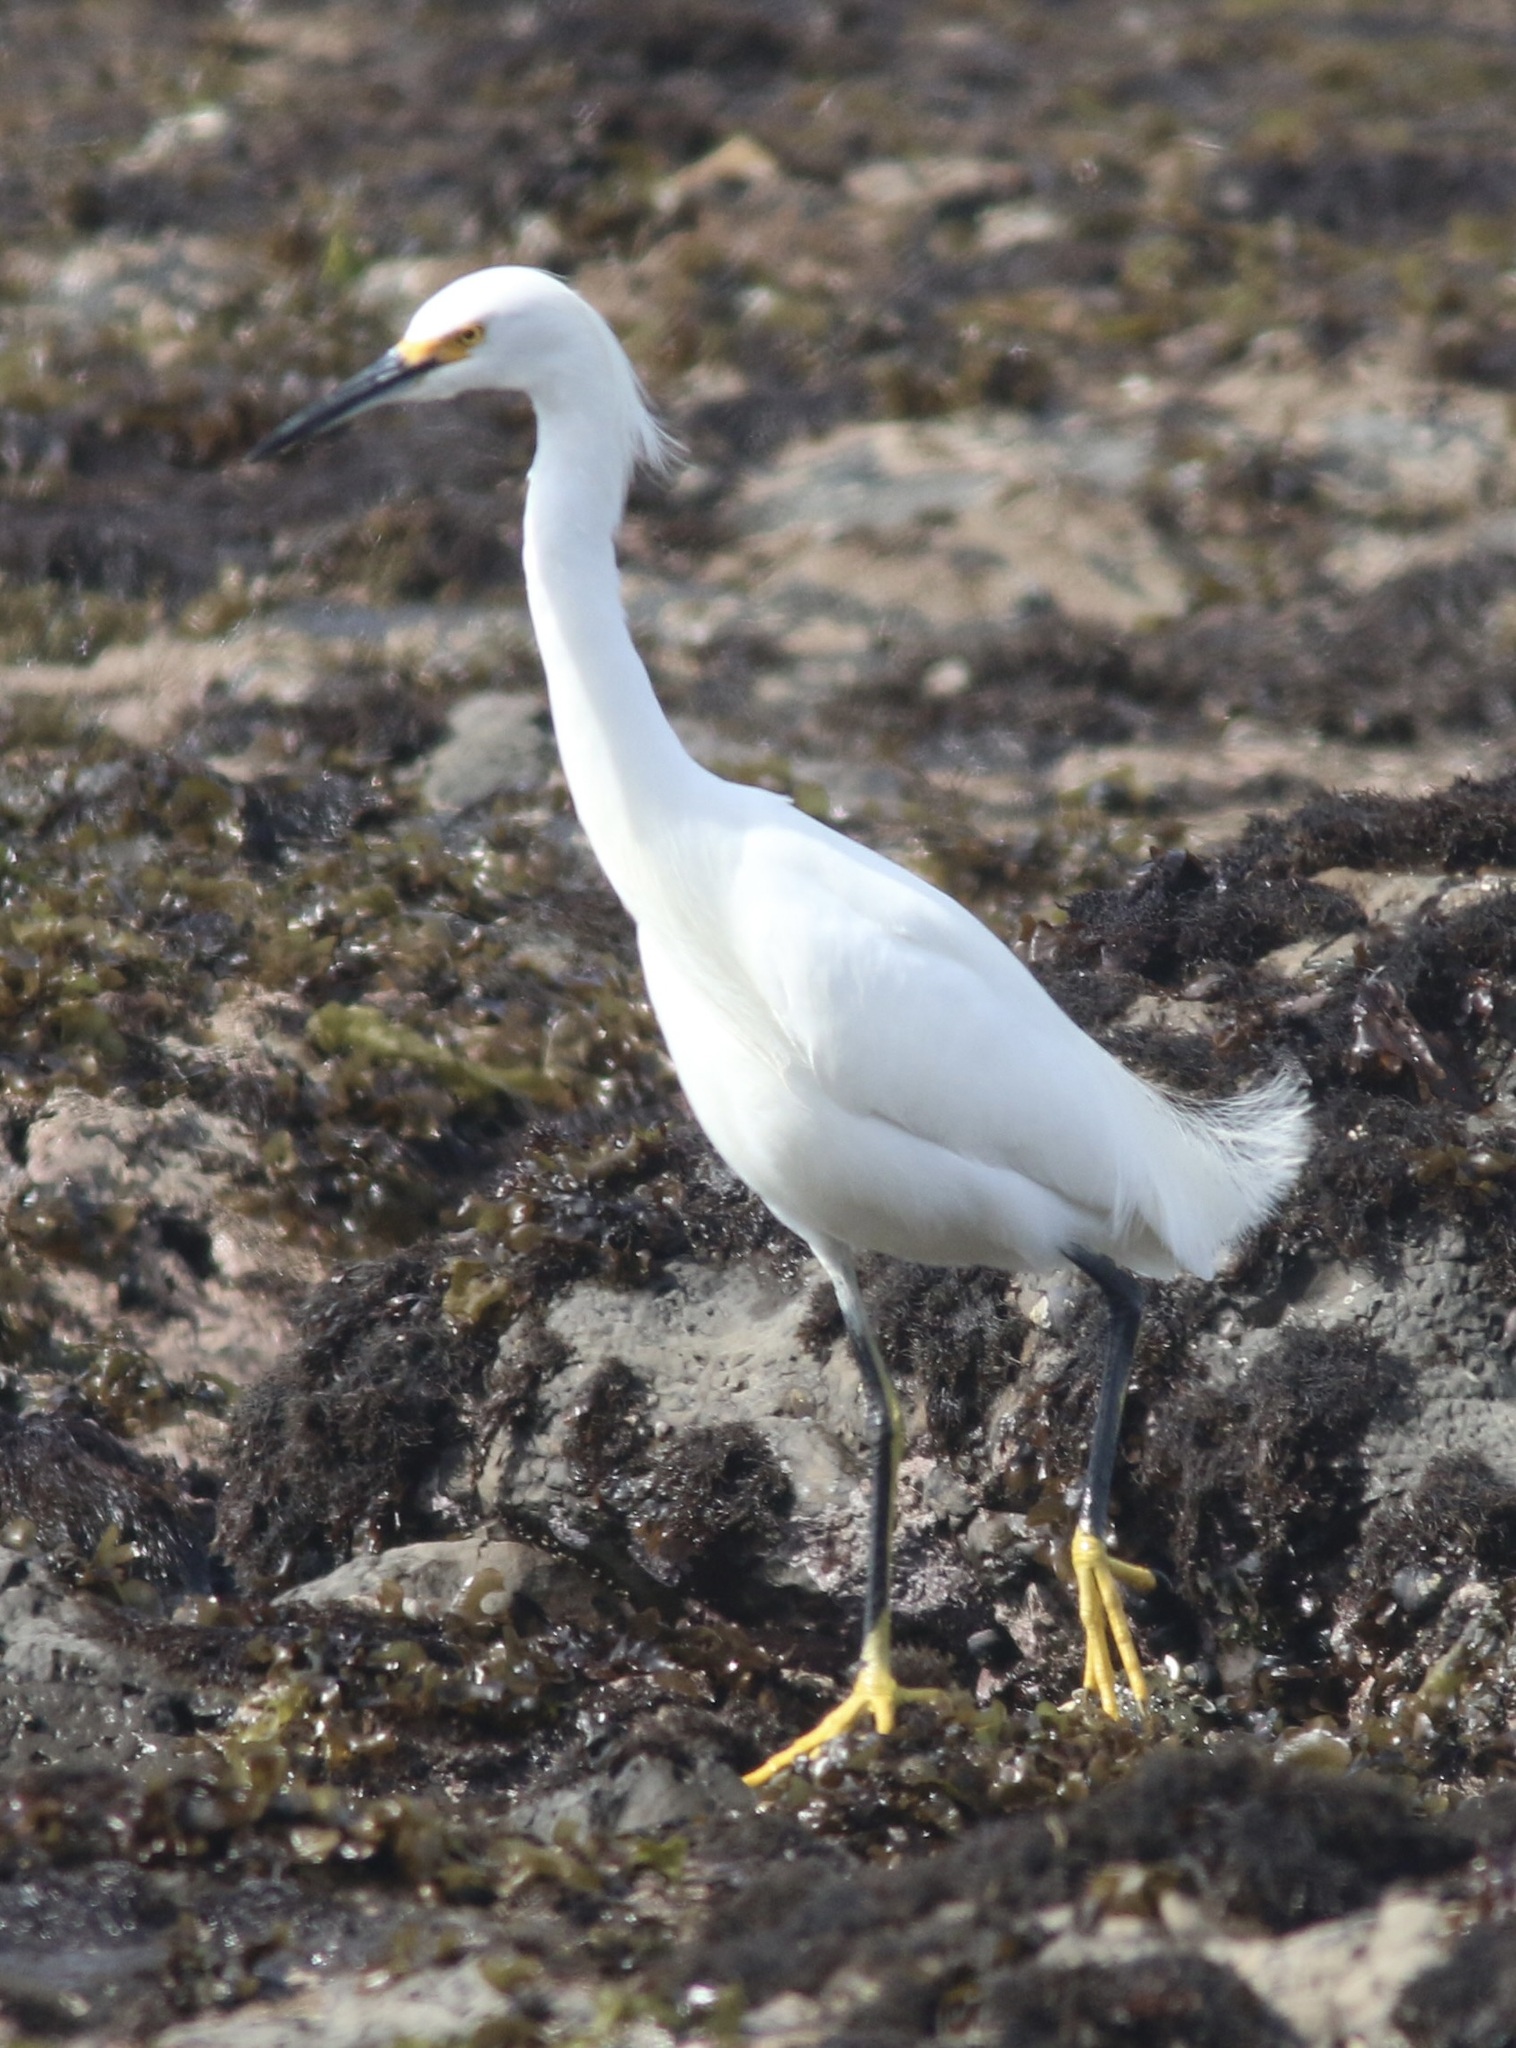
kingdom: Animalia
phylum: Chordata
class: Aves
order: Pelecaniformes
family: Ardeidae
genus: Egretta
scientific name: Egretta thula
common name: Snowy egret
